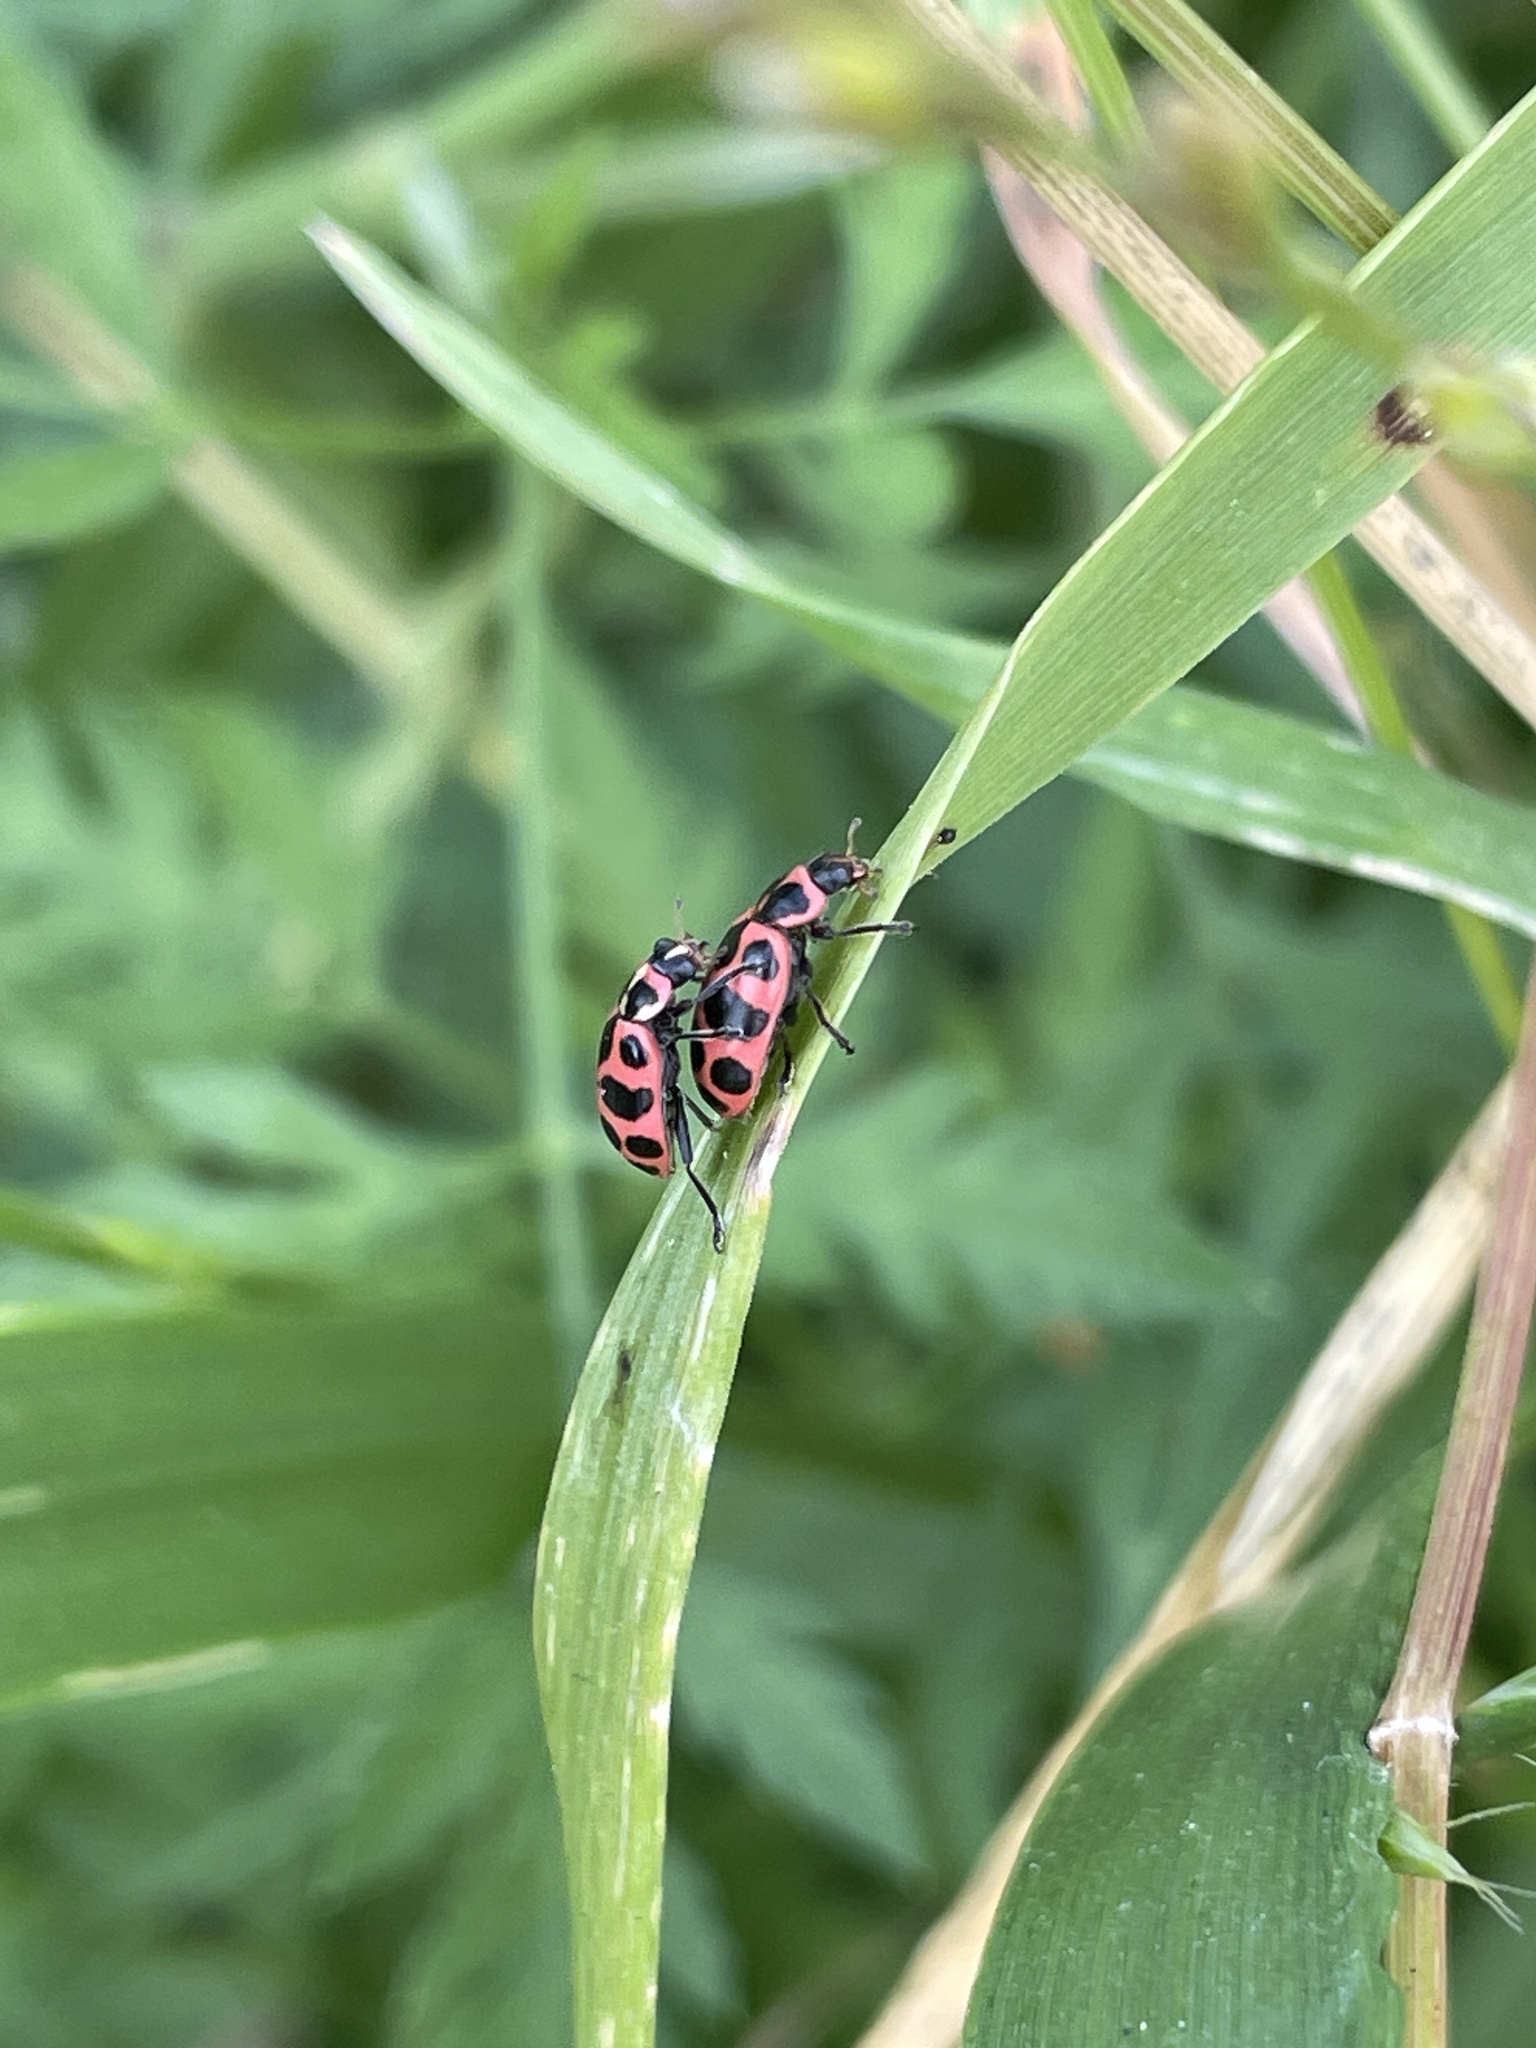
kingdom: Animalia
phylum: Arthropoda
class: Insecta
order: Coleoptera
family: Coccinellidae
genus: Coleomegilla
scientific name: Coleomegilla maculata
